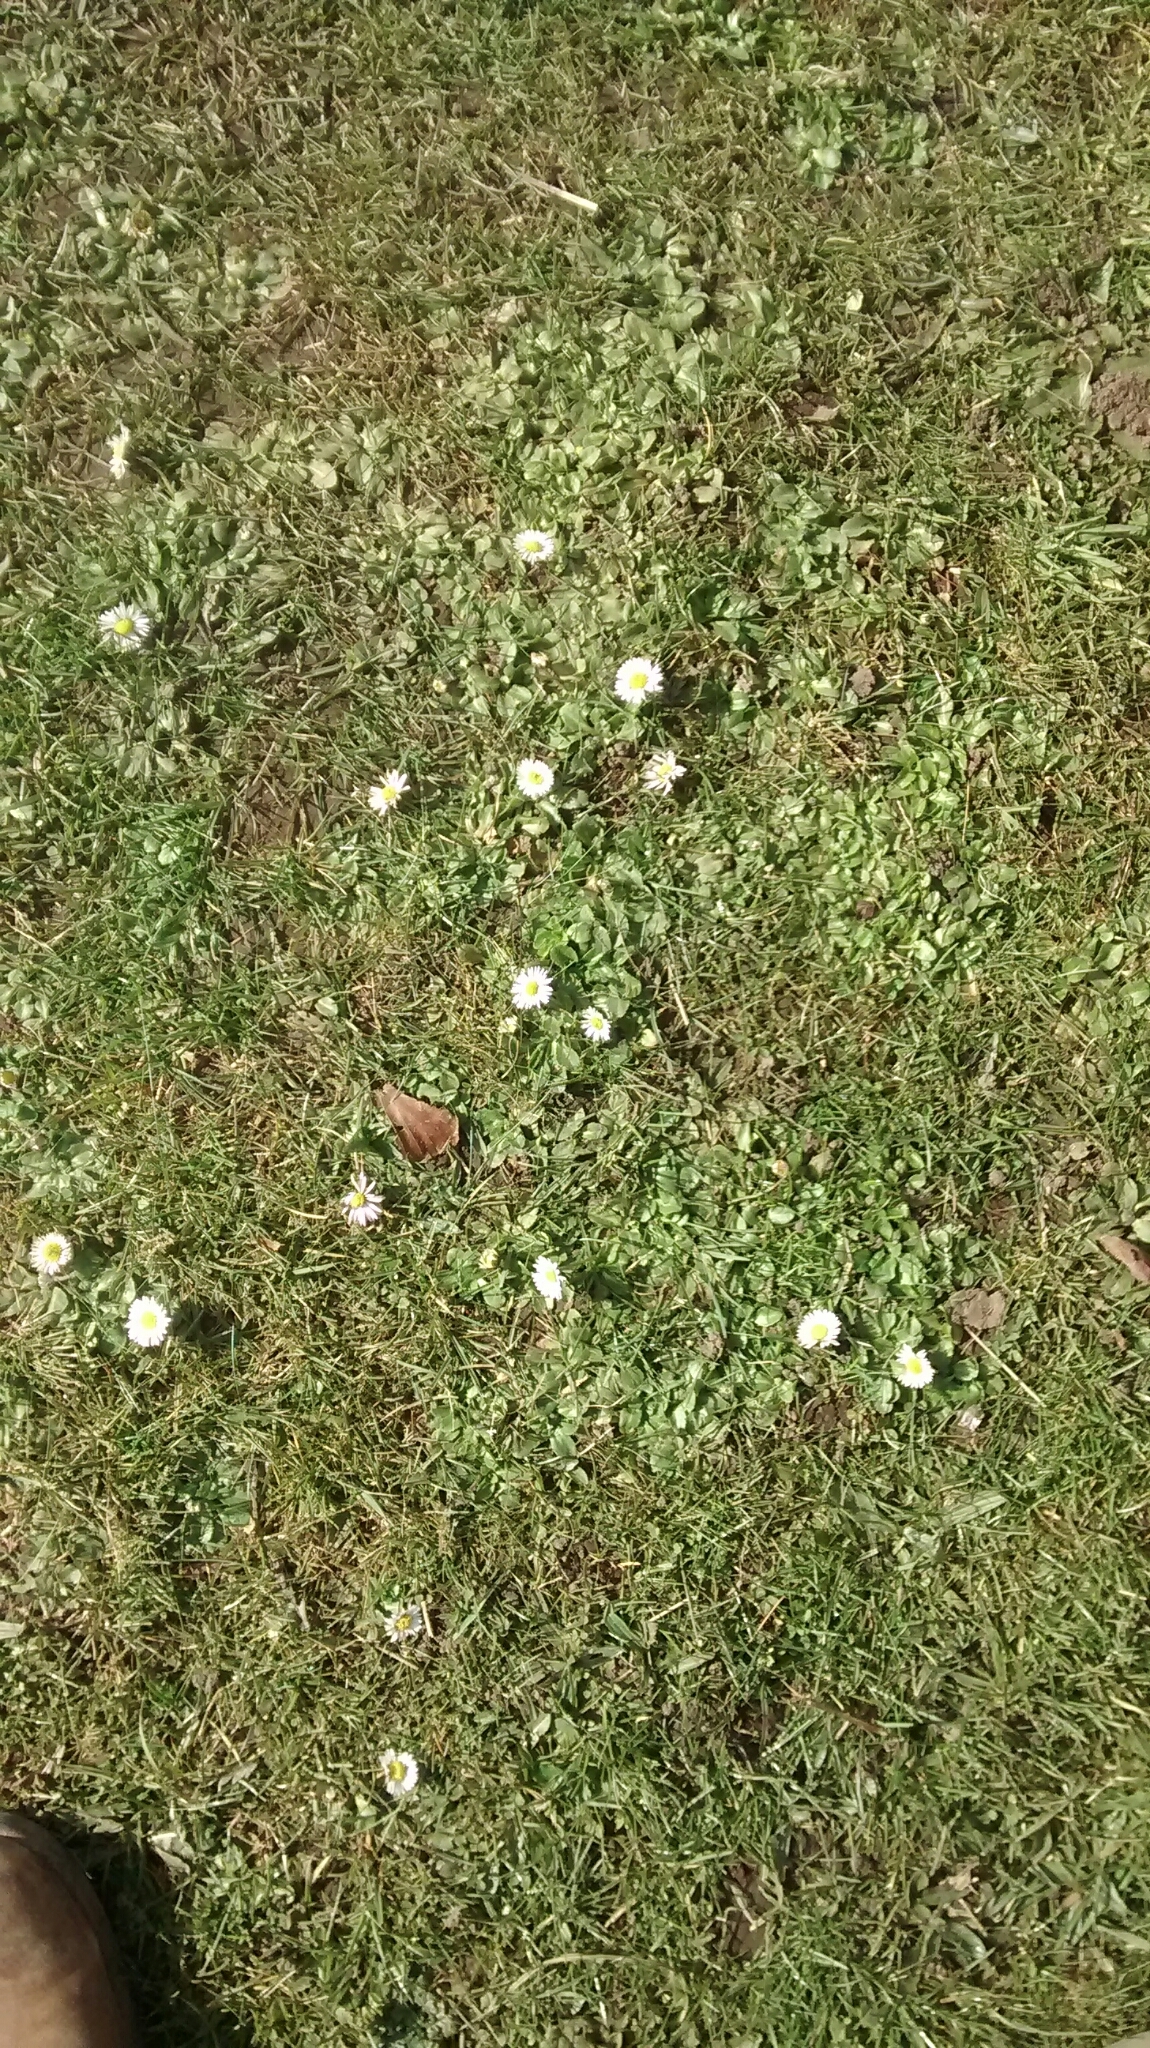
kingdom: Plantae
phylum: Tracheophyta
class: Magnoliopsida
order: Asterales
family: Asteraceae
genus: Bellis
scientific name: Bellis perennis
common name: Lawndaisy
